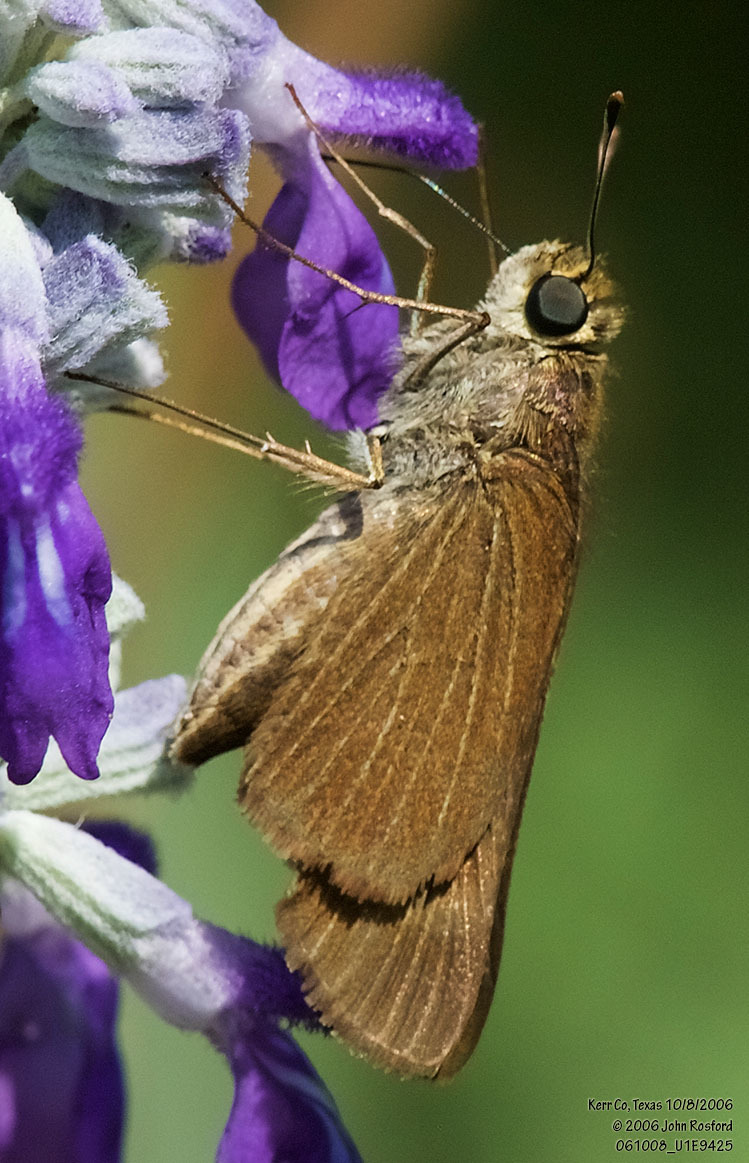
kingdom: Animalia
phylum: Arthropoda
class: Insecta
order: Lepidoptera
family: Hesperiidae
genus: Panoquina
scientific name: Panoquina ocola
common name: Ocola skipper
